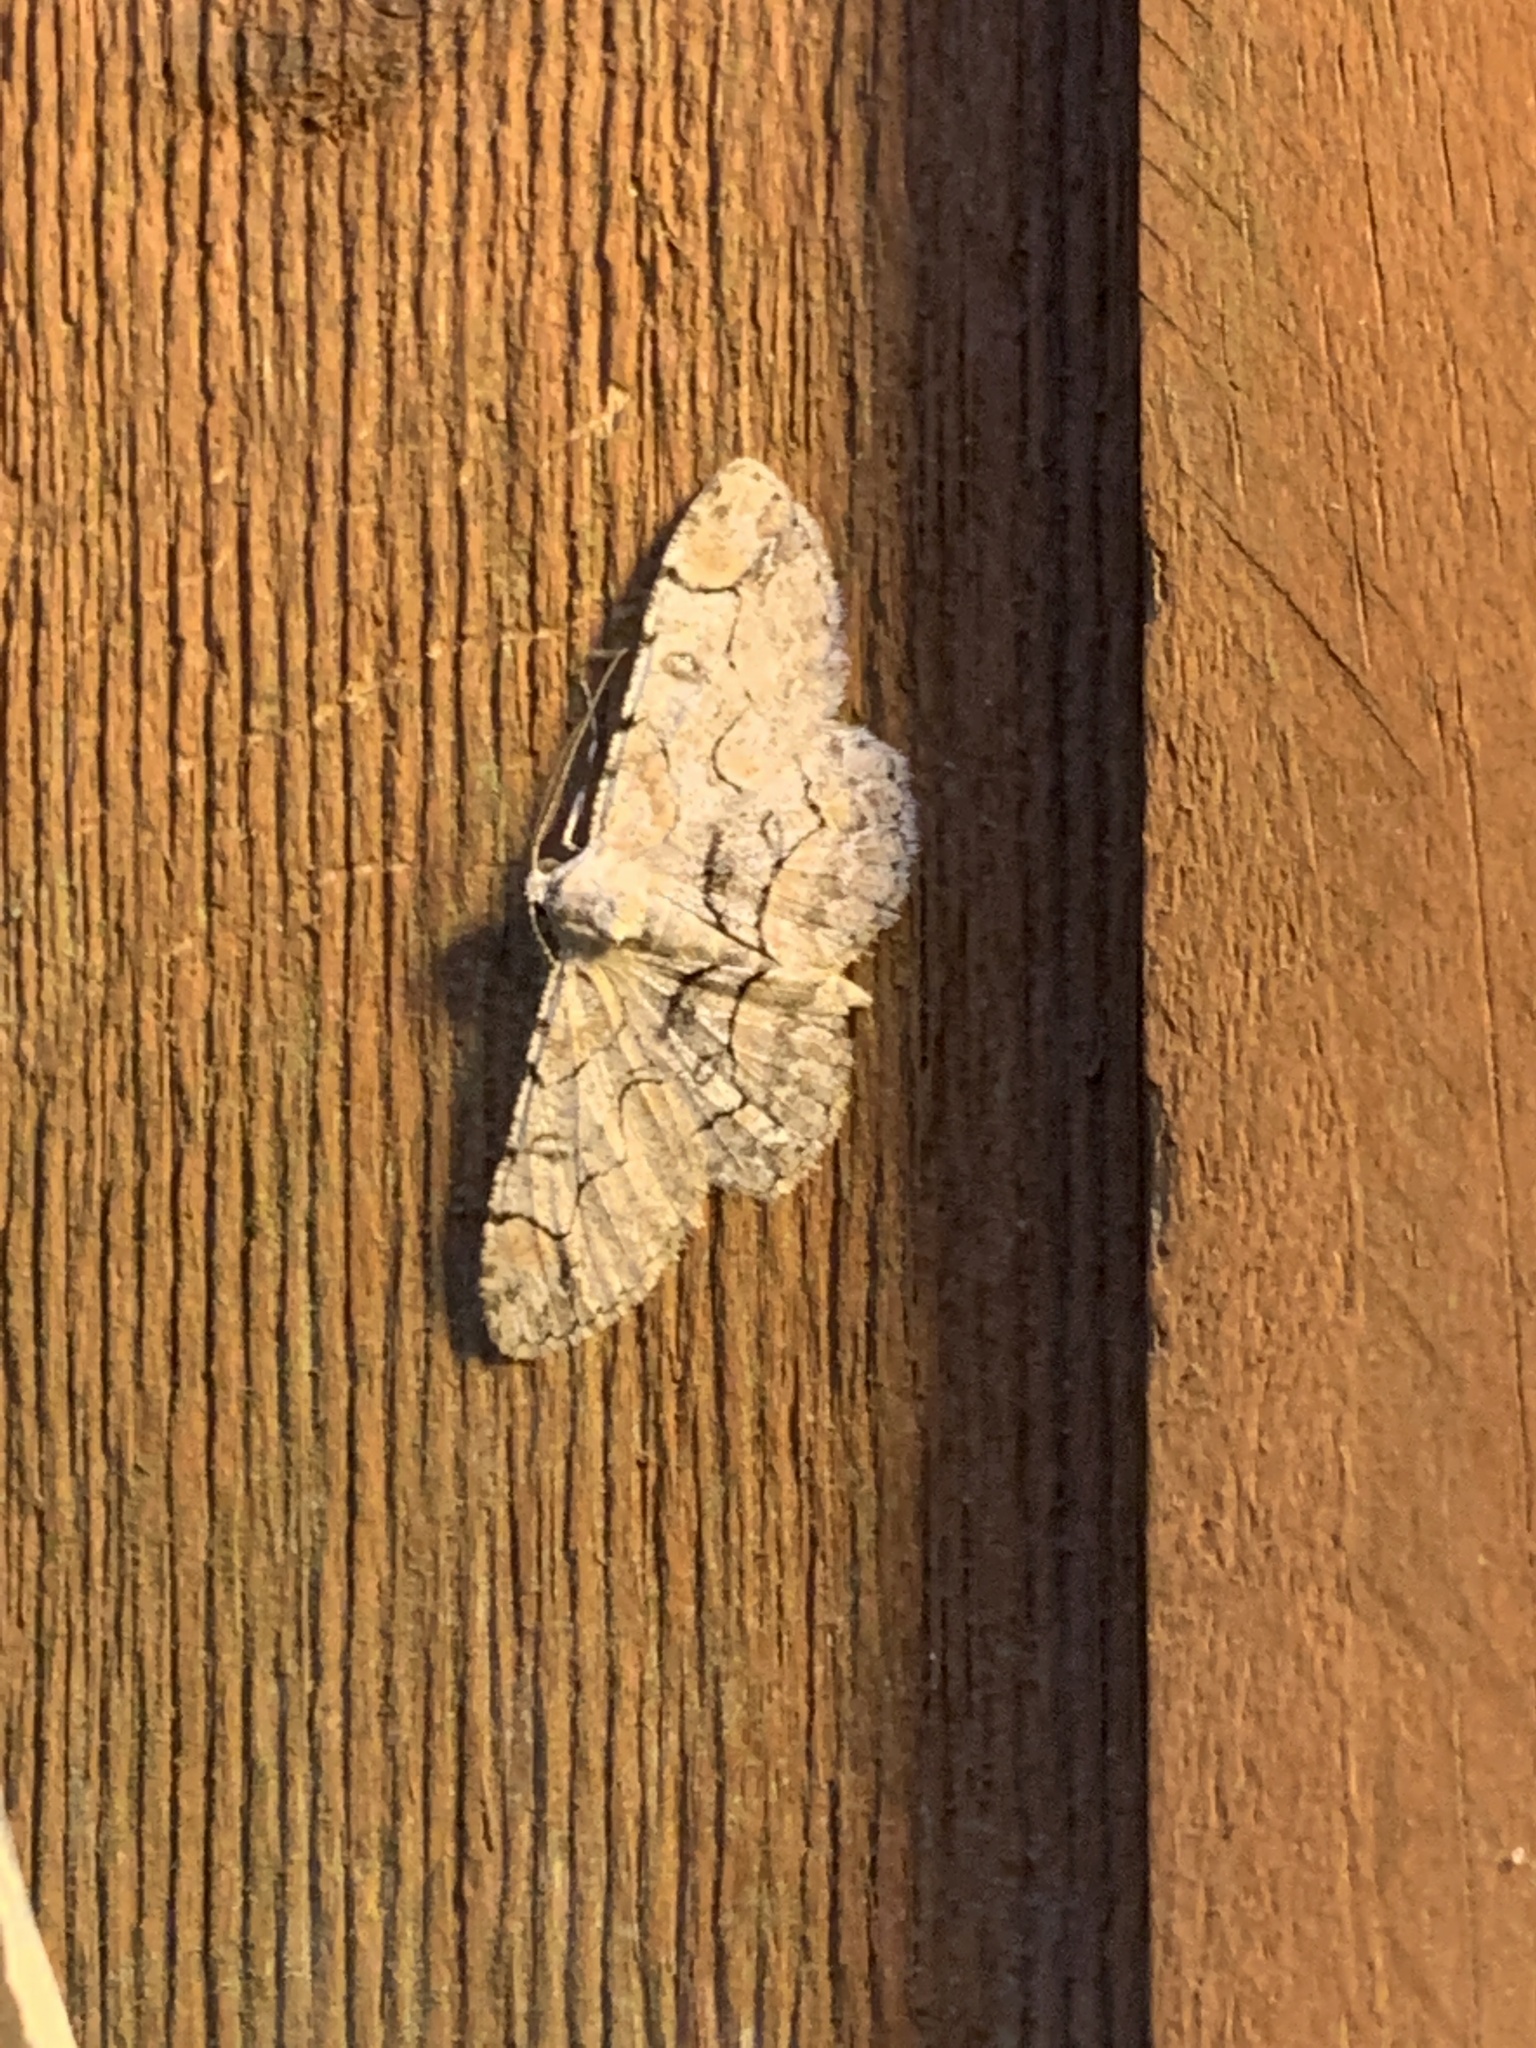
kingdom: Animalia
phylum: Arthropoda
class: Insecta
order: Lepidoptera
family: Geometridae
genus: Iridopsis
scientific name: Iridopsis larvaria
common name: Bent-line gray
